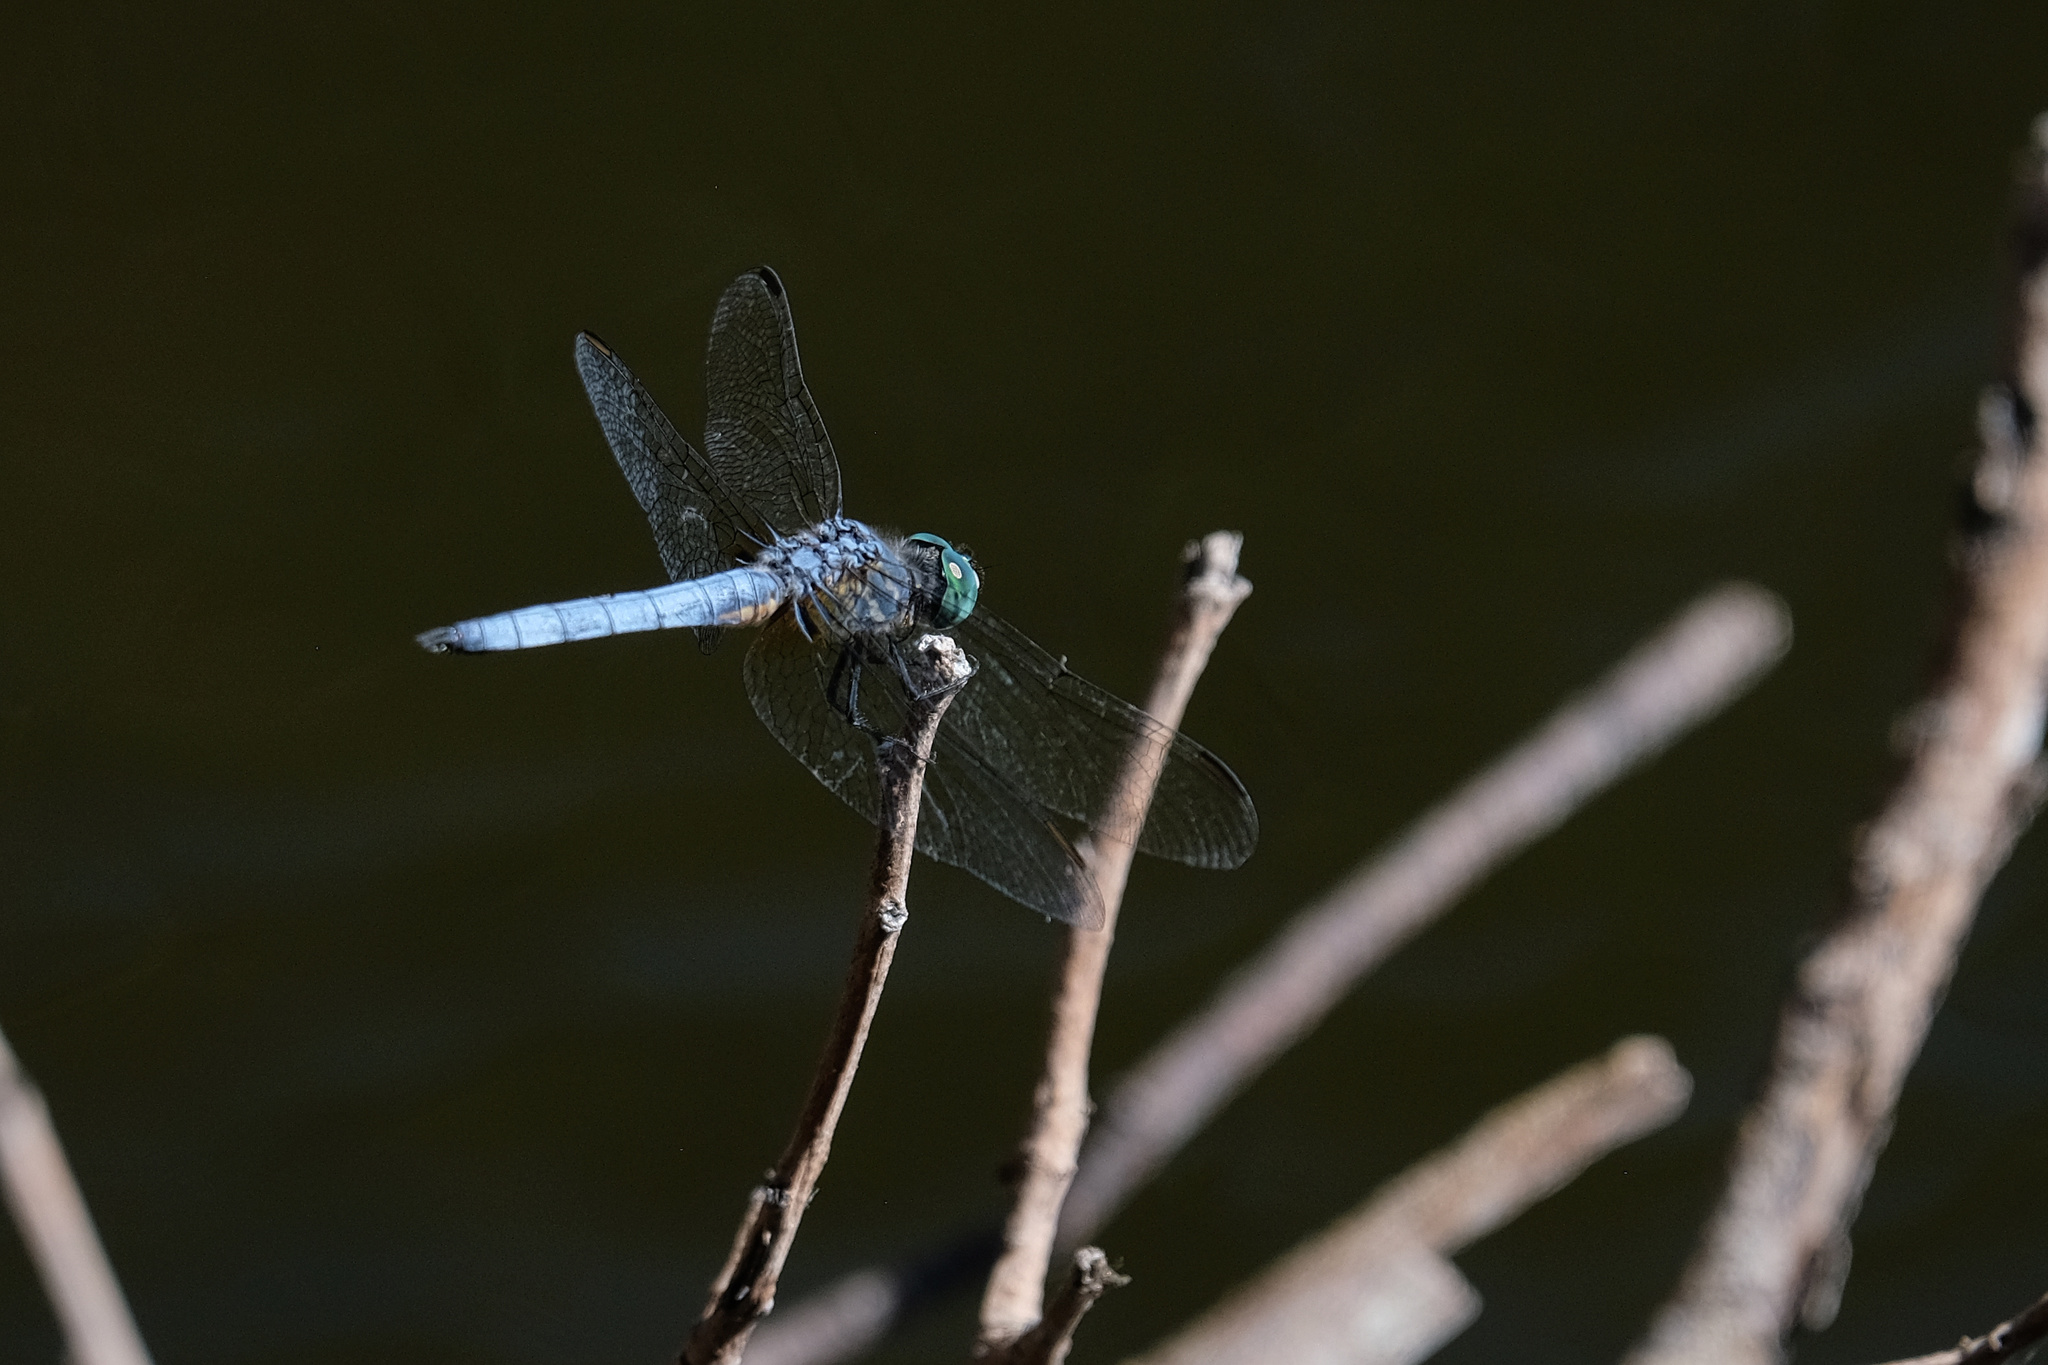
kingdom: Animalia
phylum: Arthropoda
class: Insecta
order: Odonata
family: Libellulidae
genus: Pachydiplax
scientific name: Pachydiplax longipennis
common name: Blue dasher
